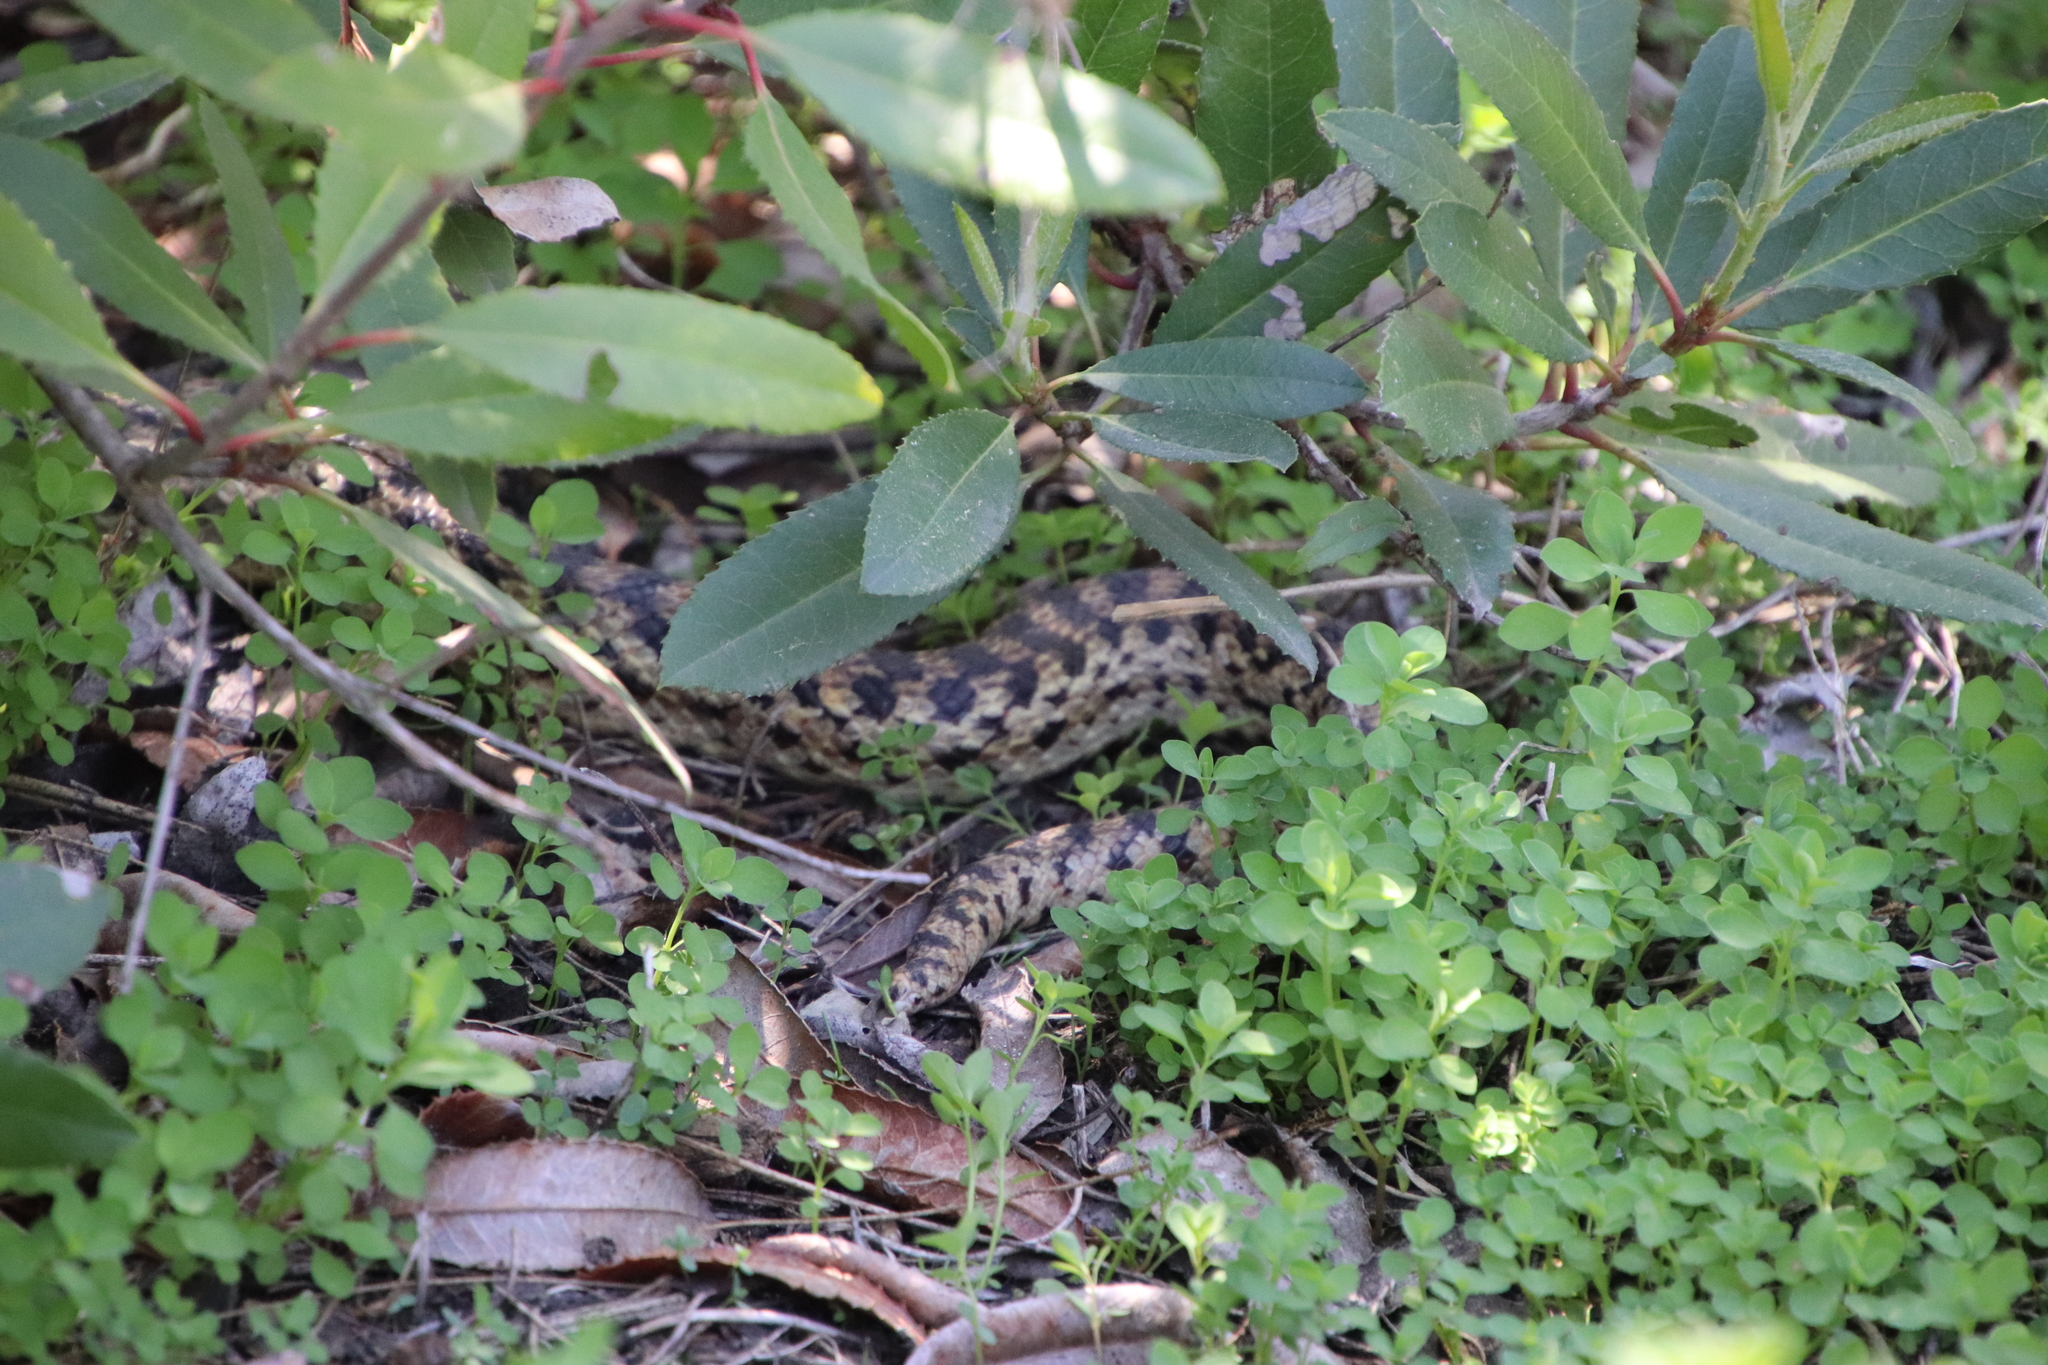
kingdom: Animalia
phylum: Chordata
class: Squamata
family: Colubridae
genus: Pituophis
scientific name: Pituophis catenifer
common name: Gopher snake
